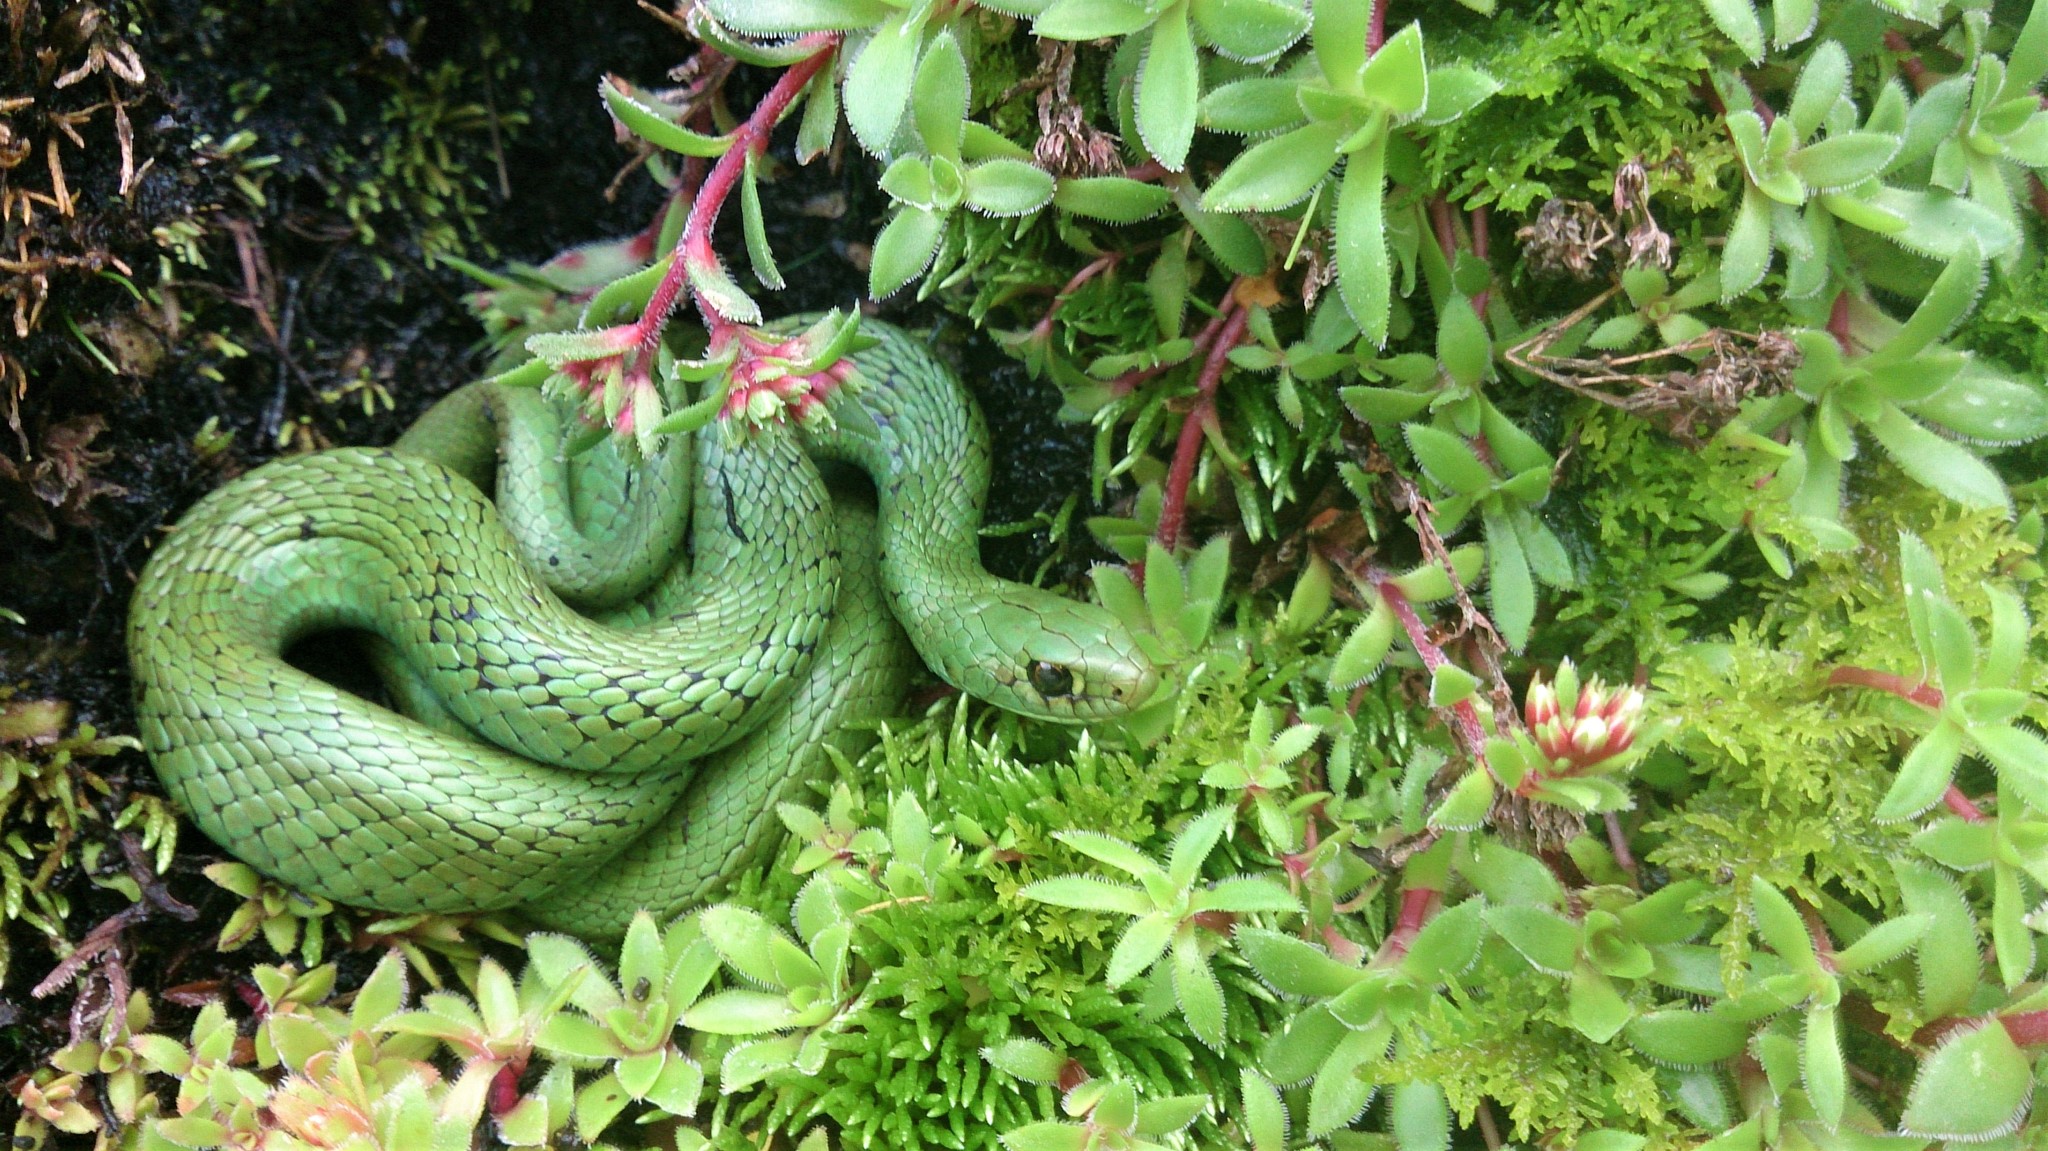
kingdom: Animalia
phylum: Chordata
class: Squamata
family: Pseudoxyrhophiidae
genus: Amplorhinus
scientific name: Amplorhinus multimaculatus
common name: Many-spotted snake
